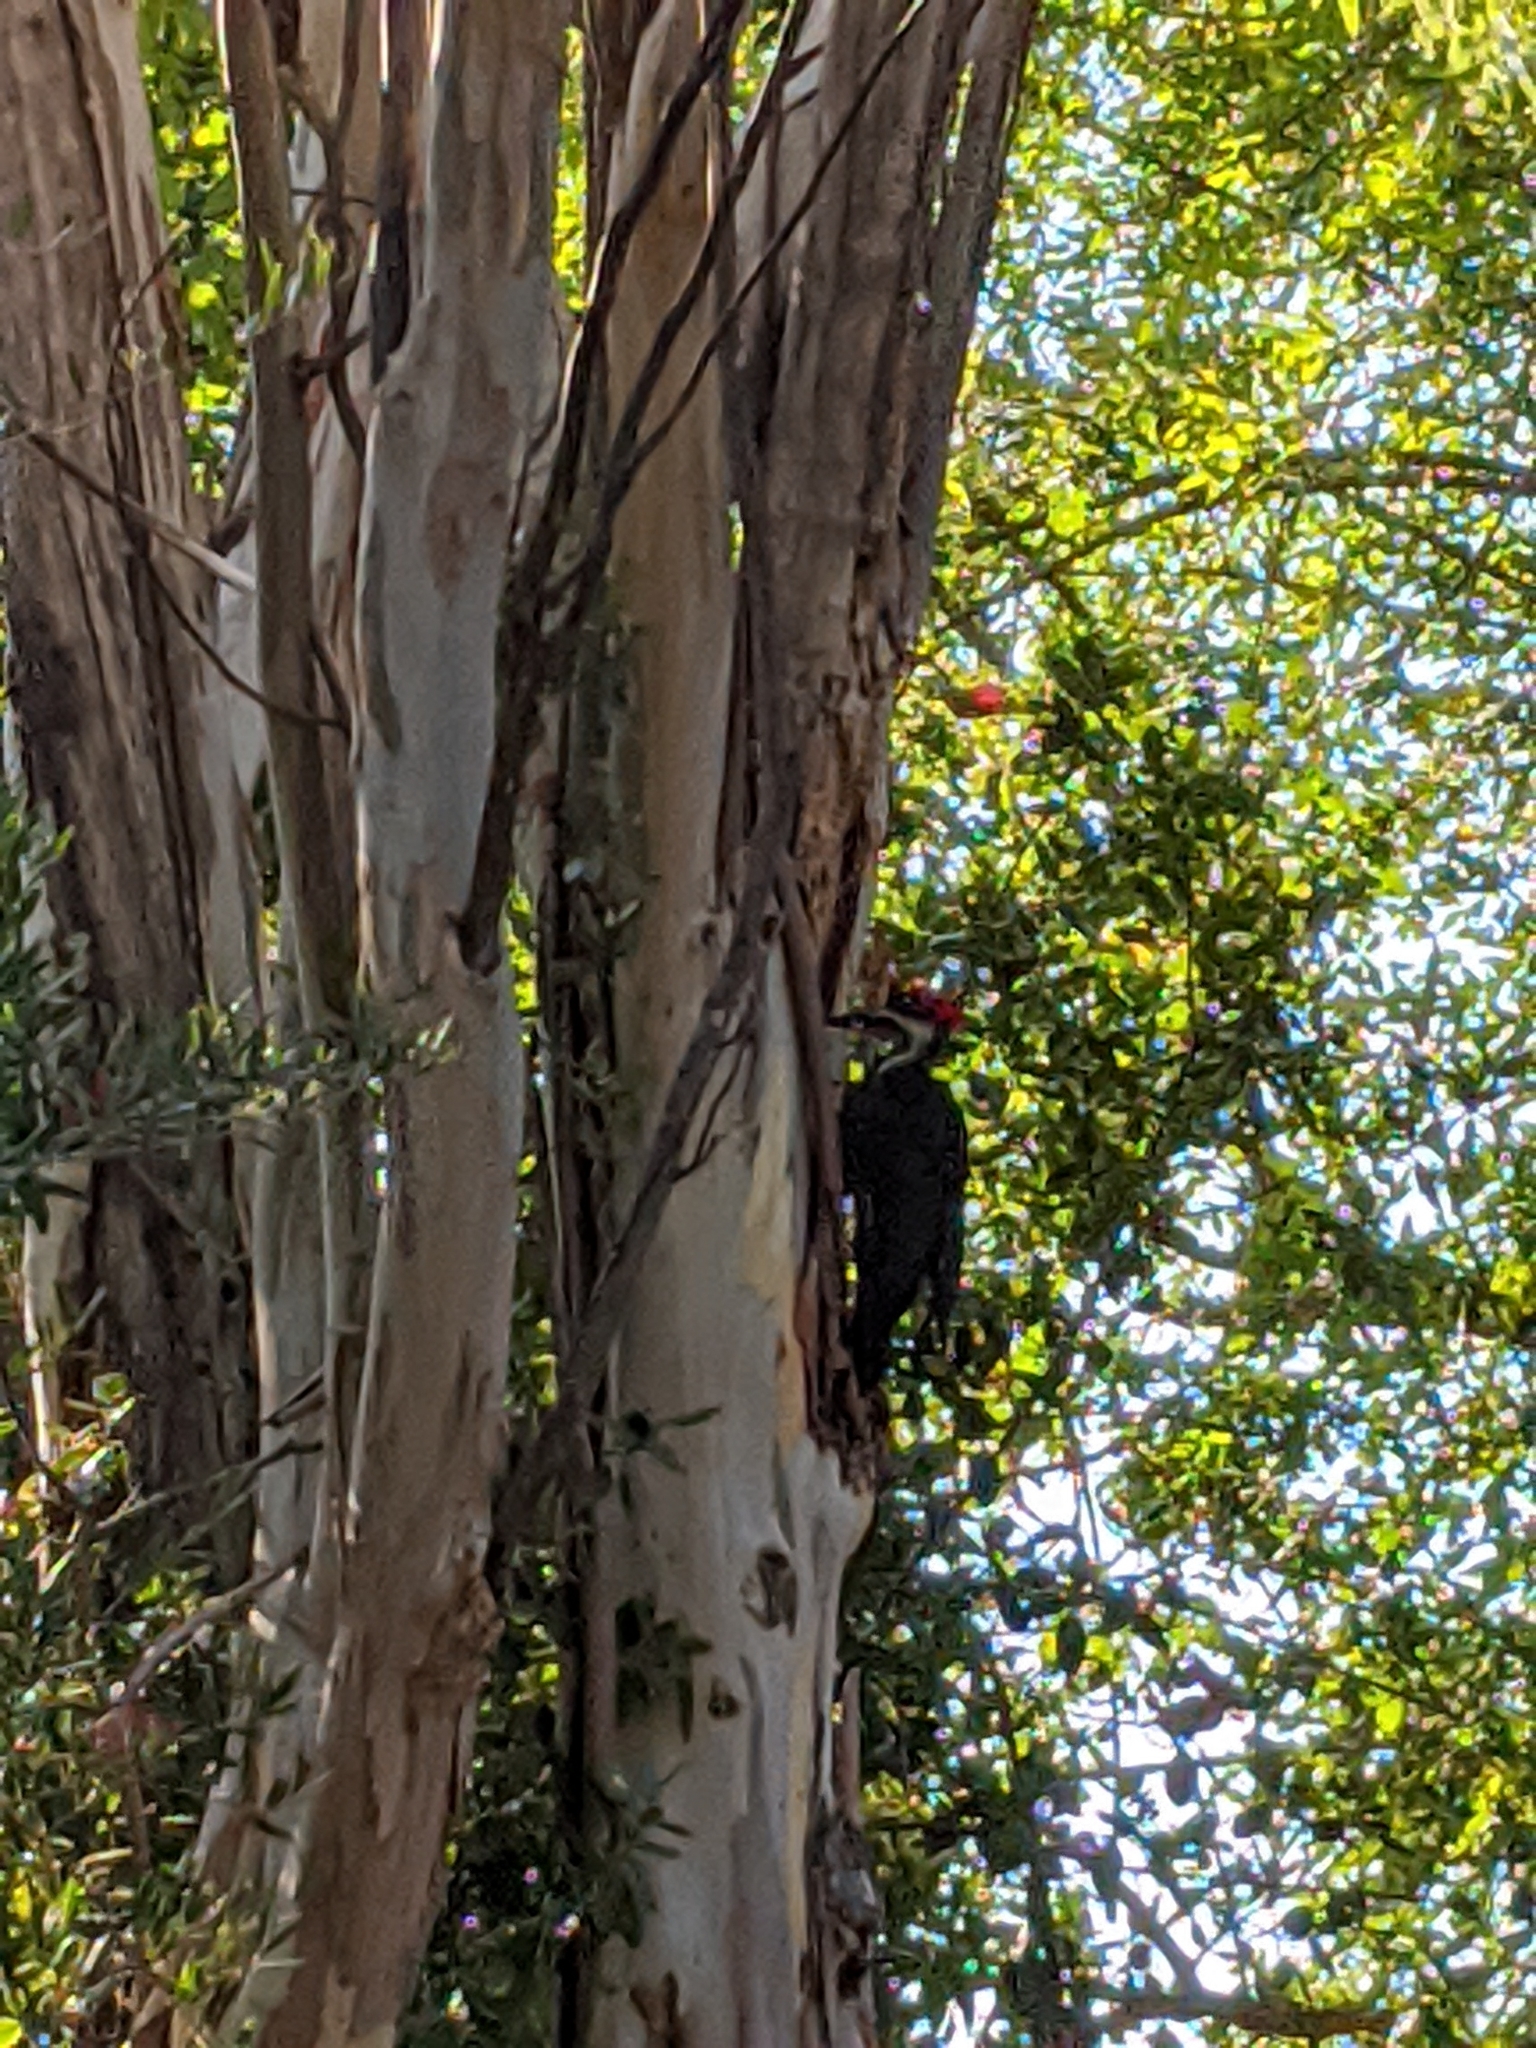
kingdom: Animalia
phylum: Chordata
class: Aves
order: Piciformes
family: Picidae
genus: Dryocopus
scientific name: Dryocopus pileatus
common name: Pileated woodpecker
